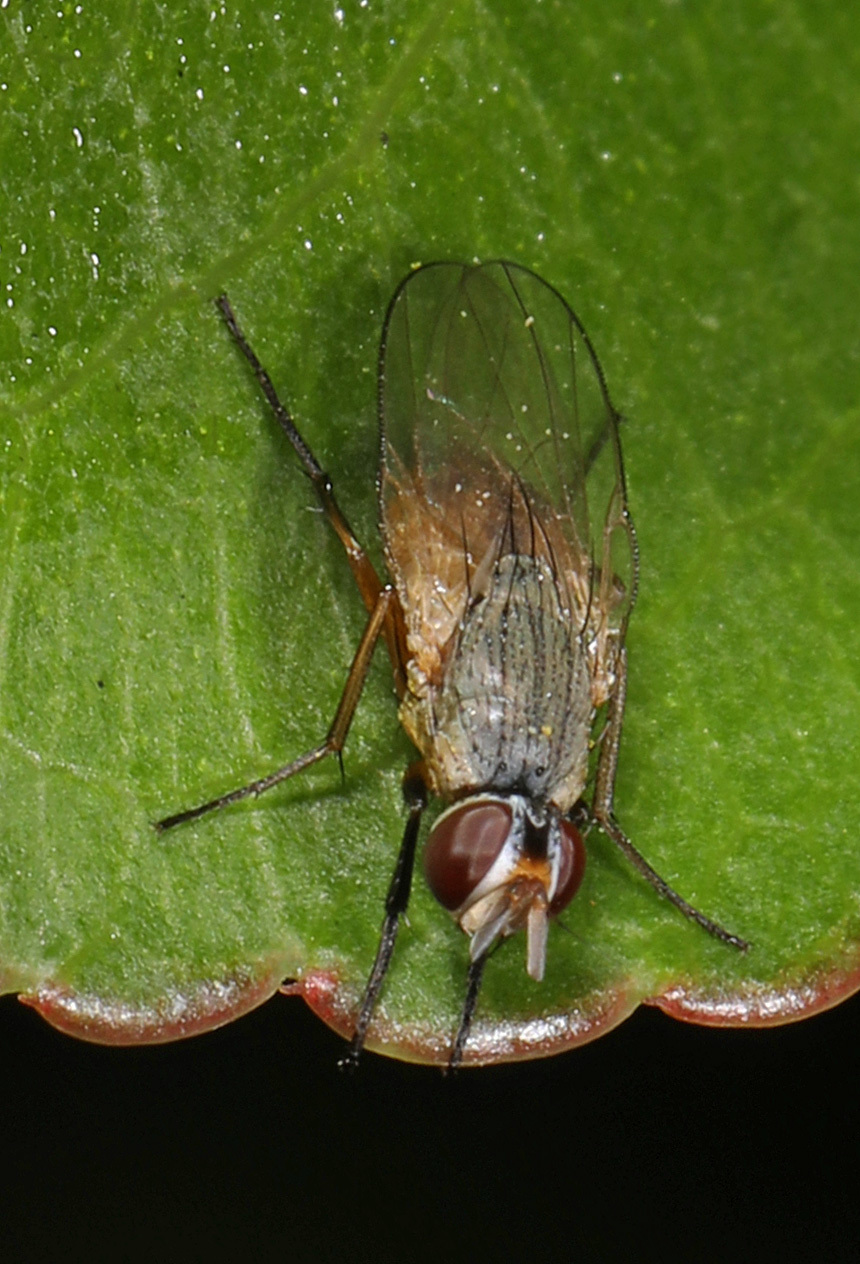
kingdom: Animalia
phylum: Arthropoda
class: Insecta
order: Diptera
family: Muscidae
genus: Atherigona
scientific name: Atherigona reversura
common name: Bermudagrass stem maggot
